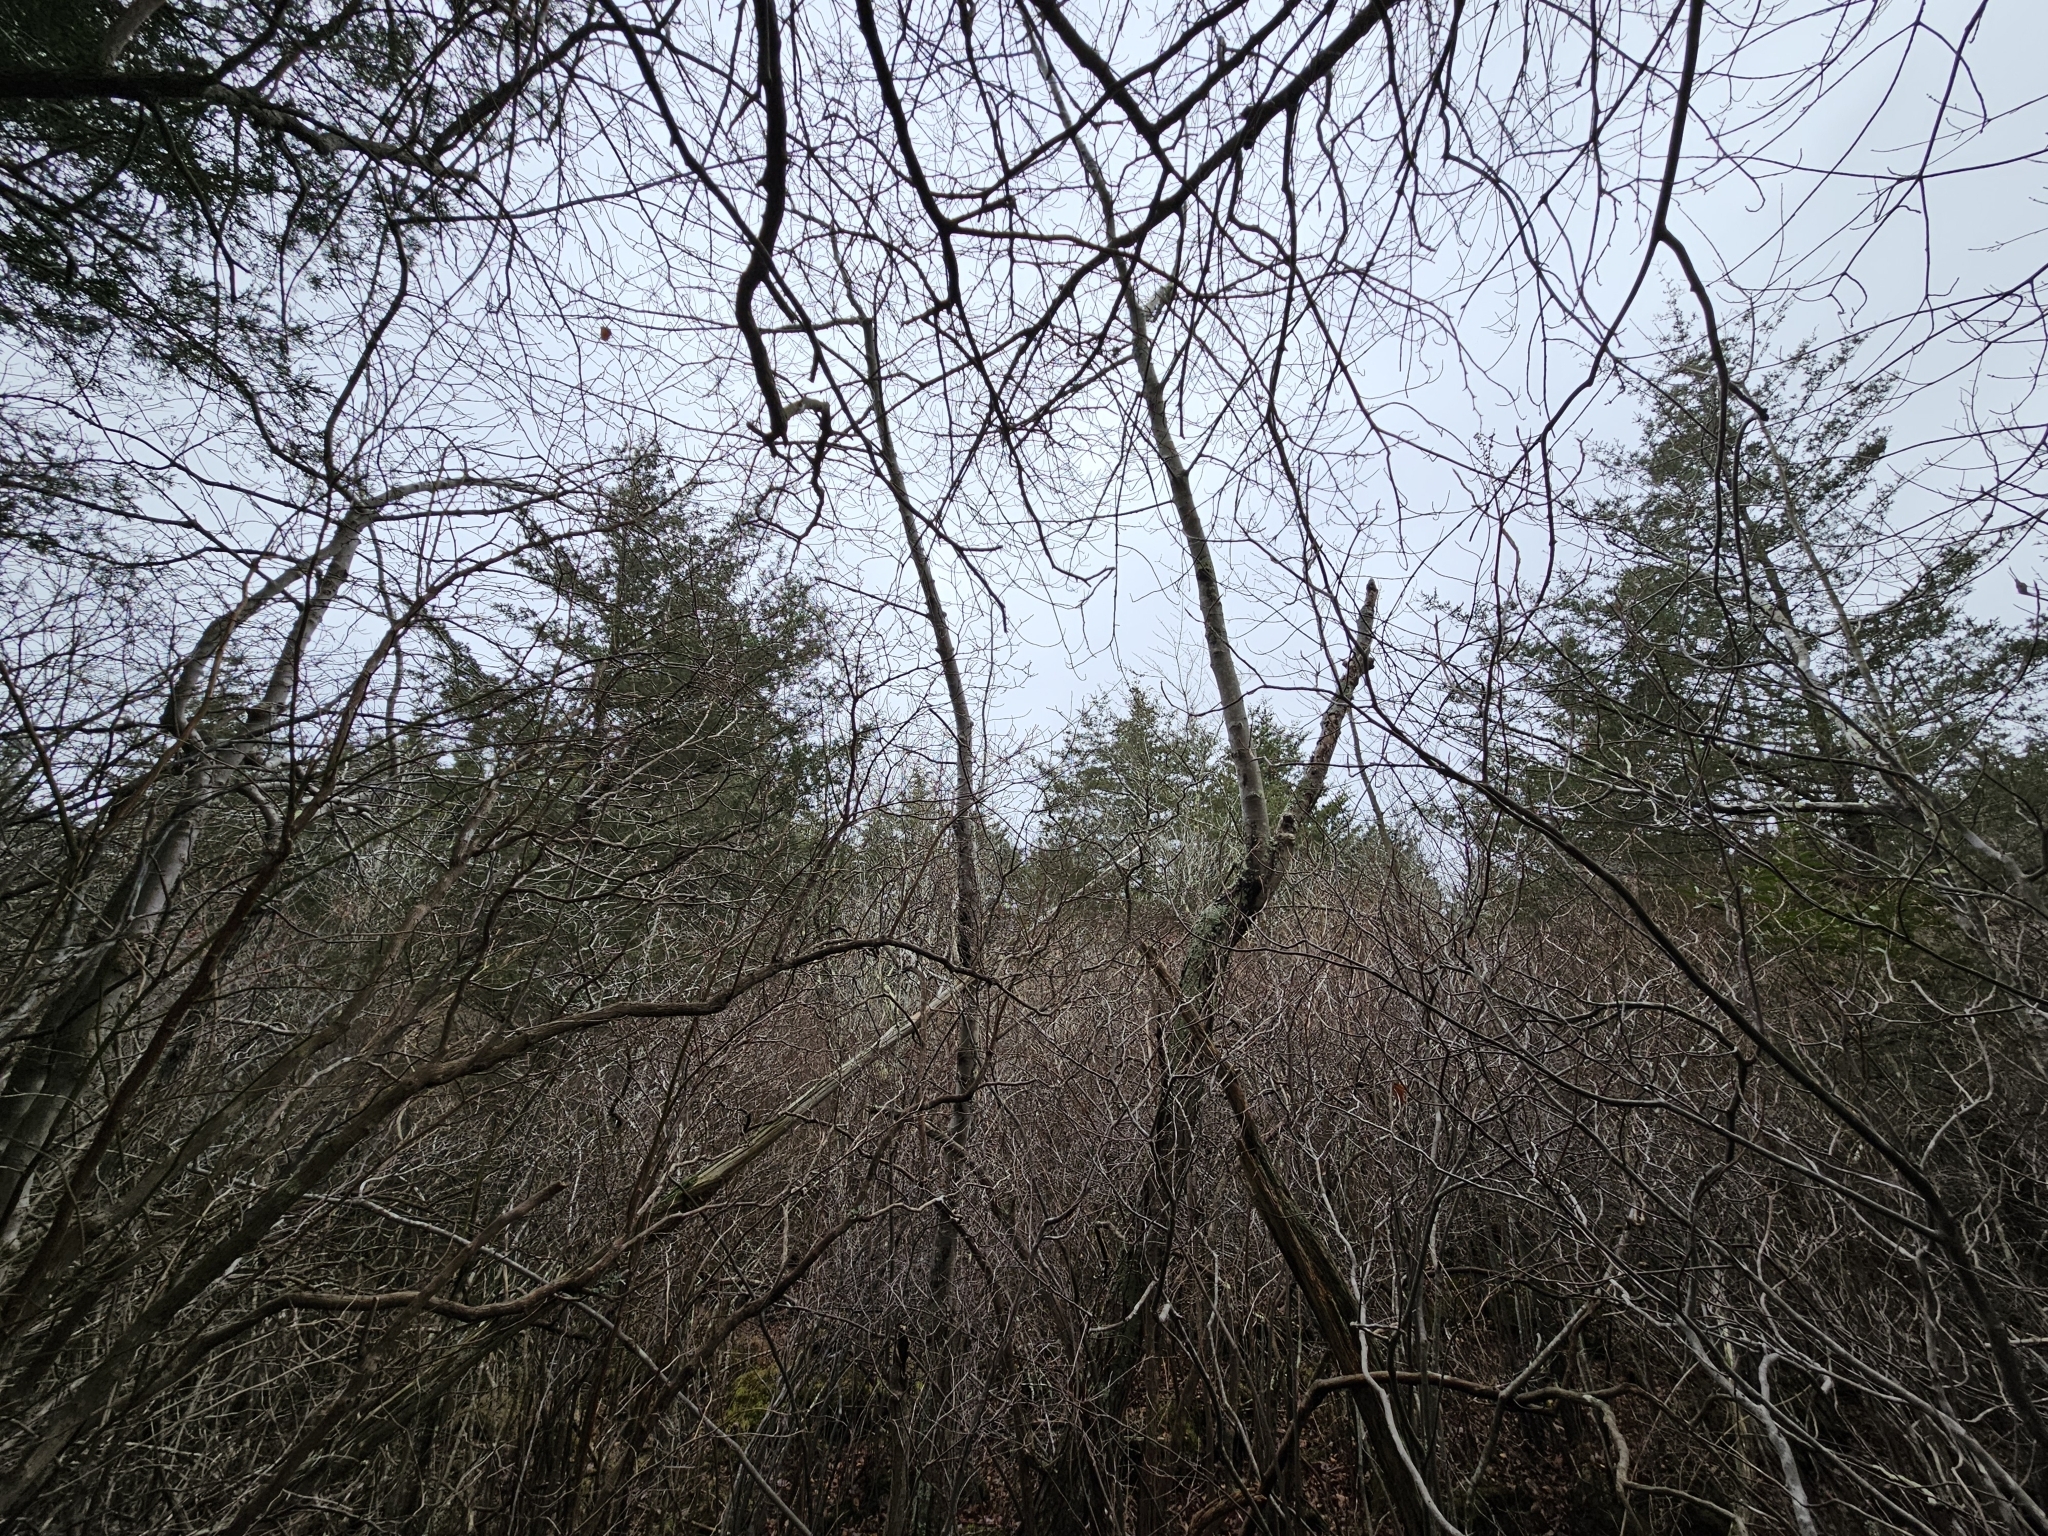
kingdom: Plantae
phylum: Tracheophyta
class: Pinopsida
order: Pinales
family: Cupressaceae
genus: Chamaecyparis
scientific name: Chamaecyparis thyoides
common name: Atlantic white cedar
